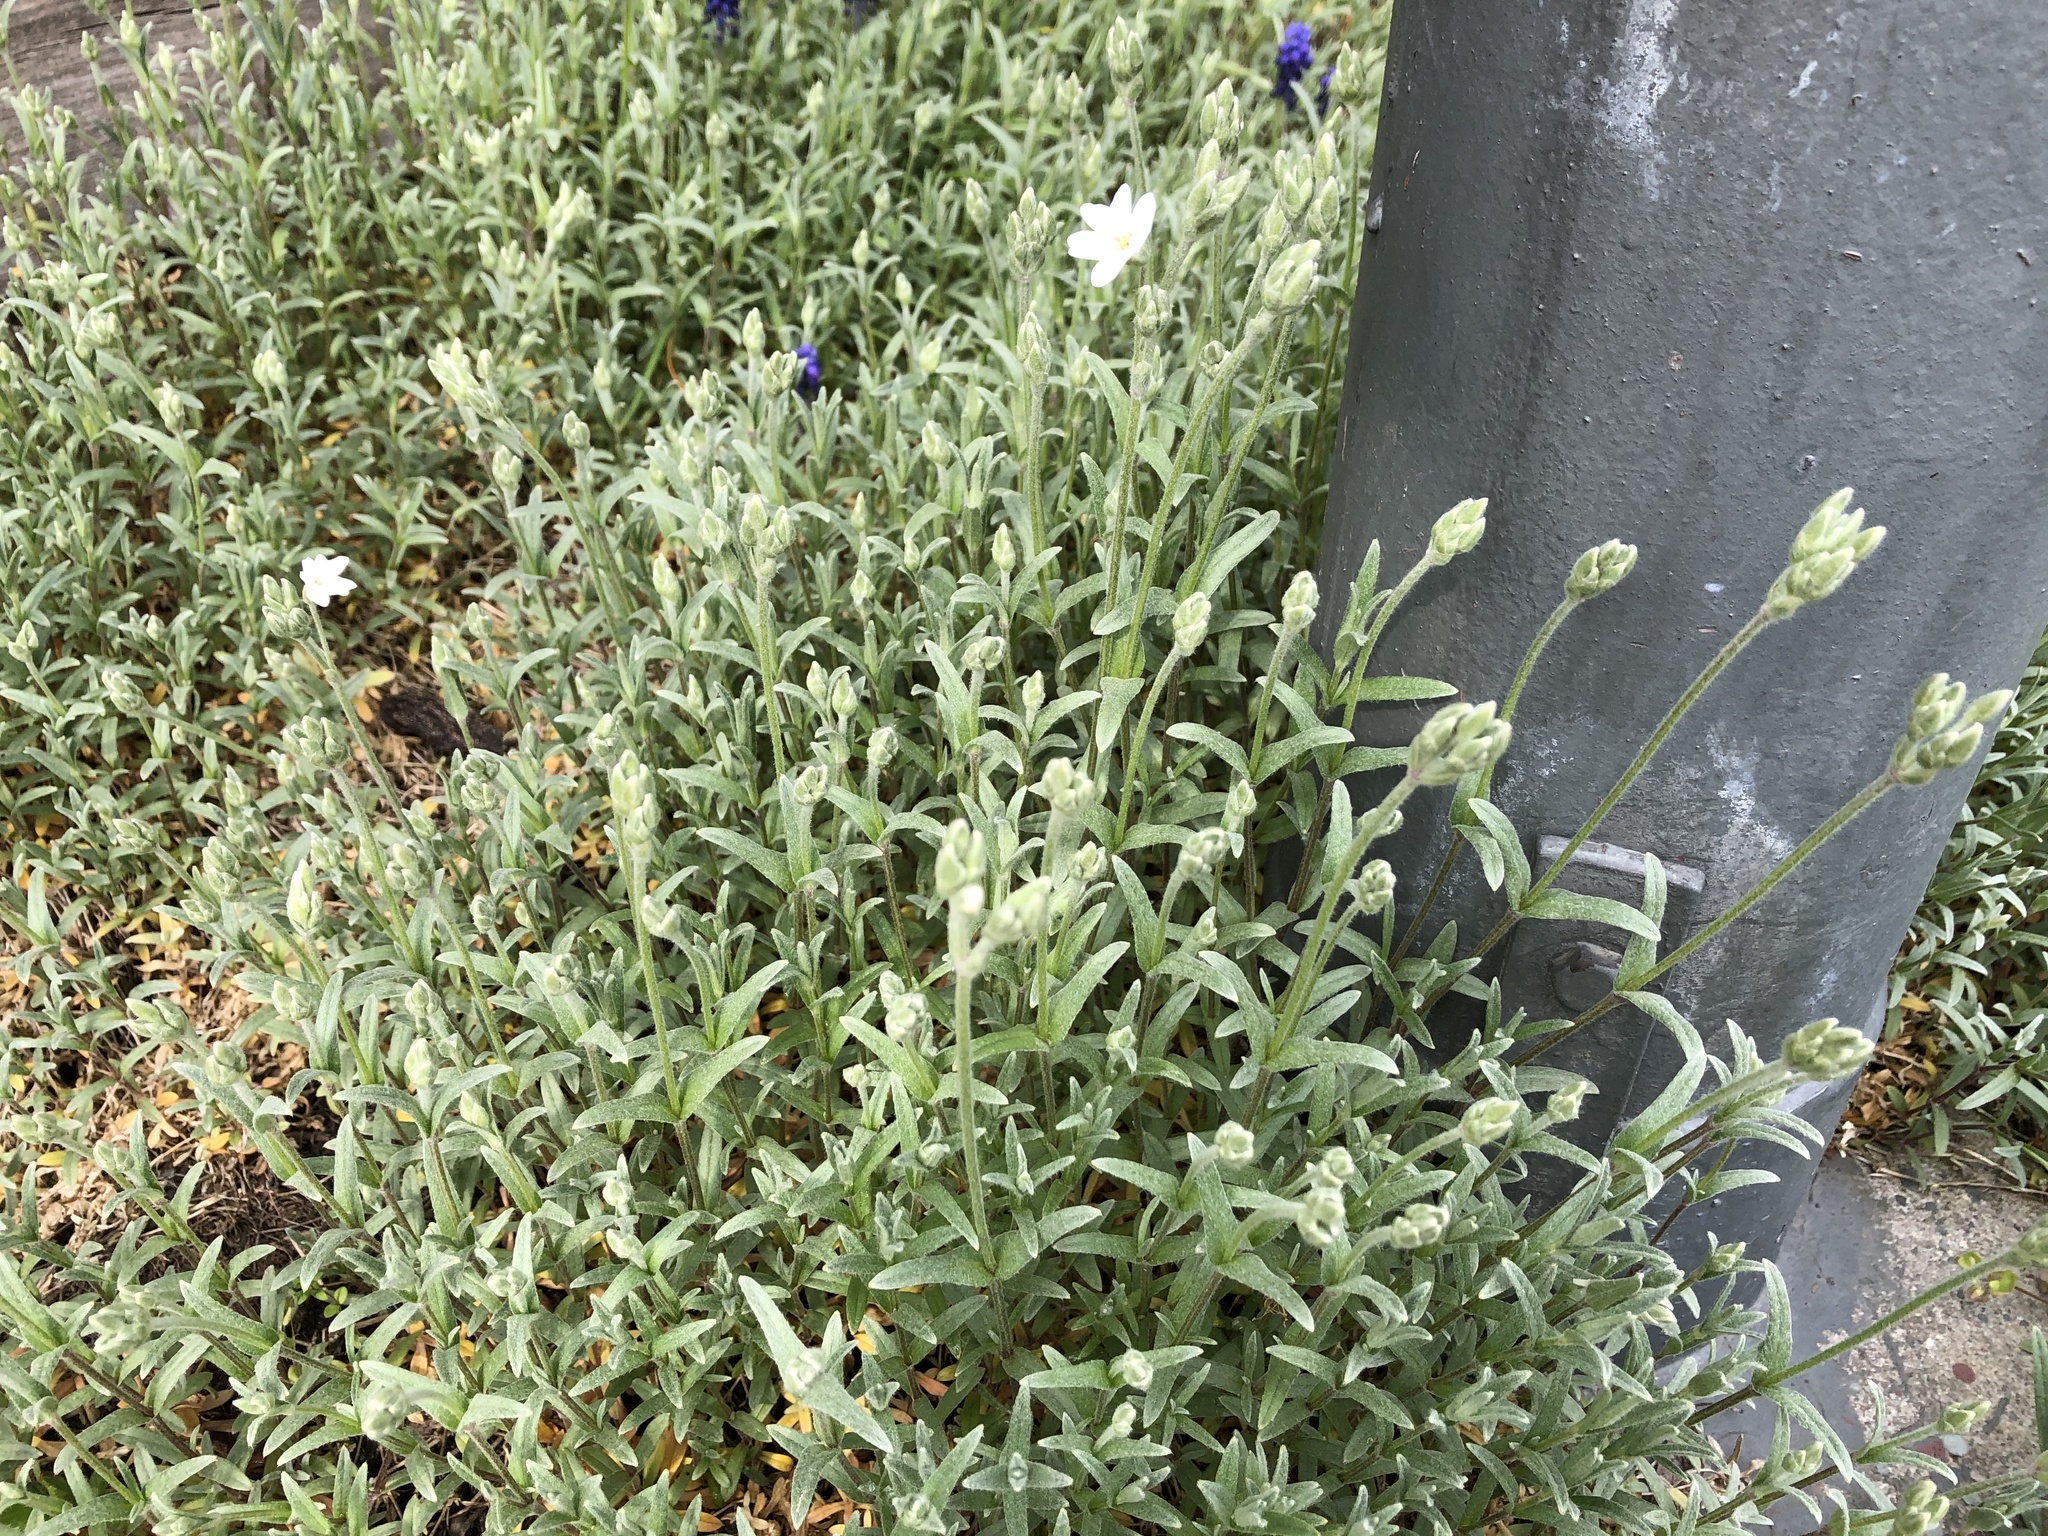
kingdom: Plantae
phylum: Tracheophyta
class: Magnoliopsida
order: Caryophyllales
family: Caryophyllaceae
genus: Cerastium
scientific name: Cerastium tomentosum
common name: Snow-in-summer
